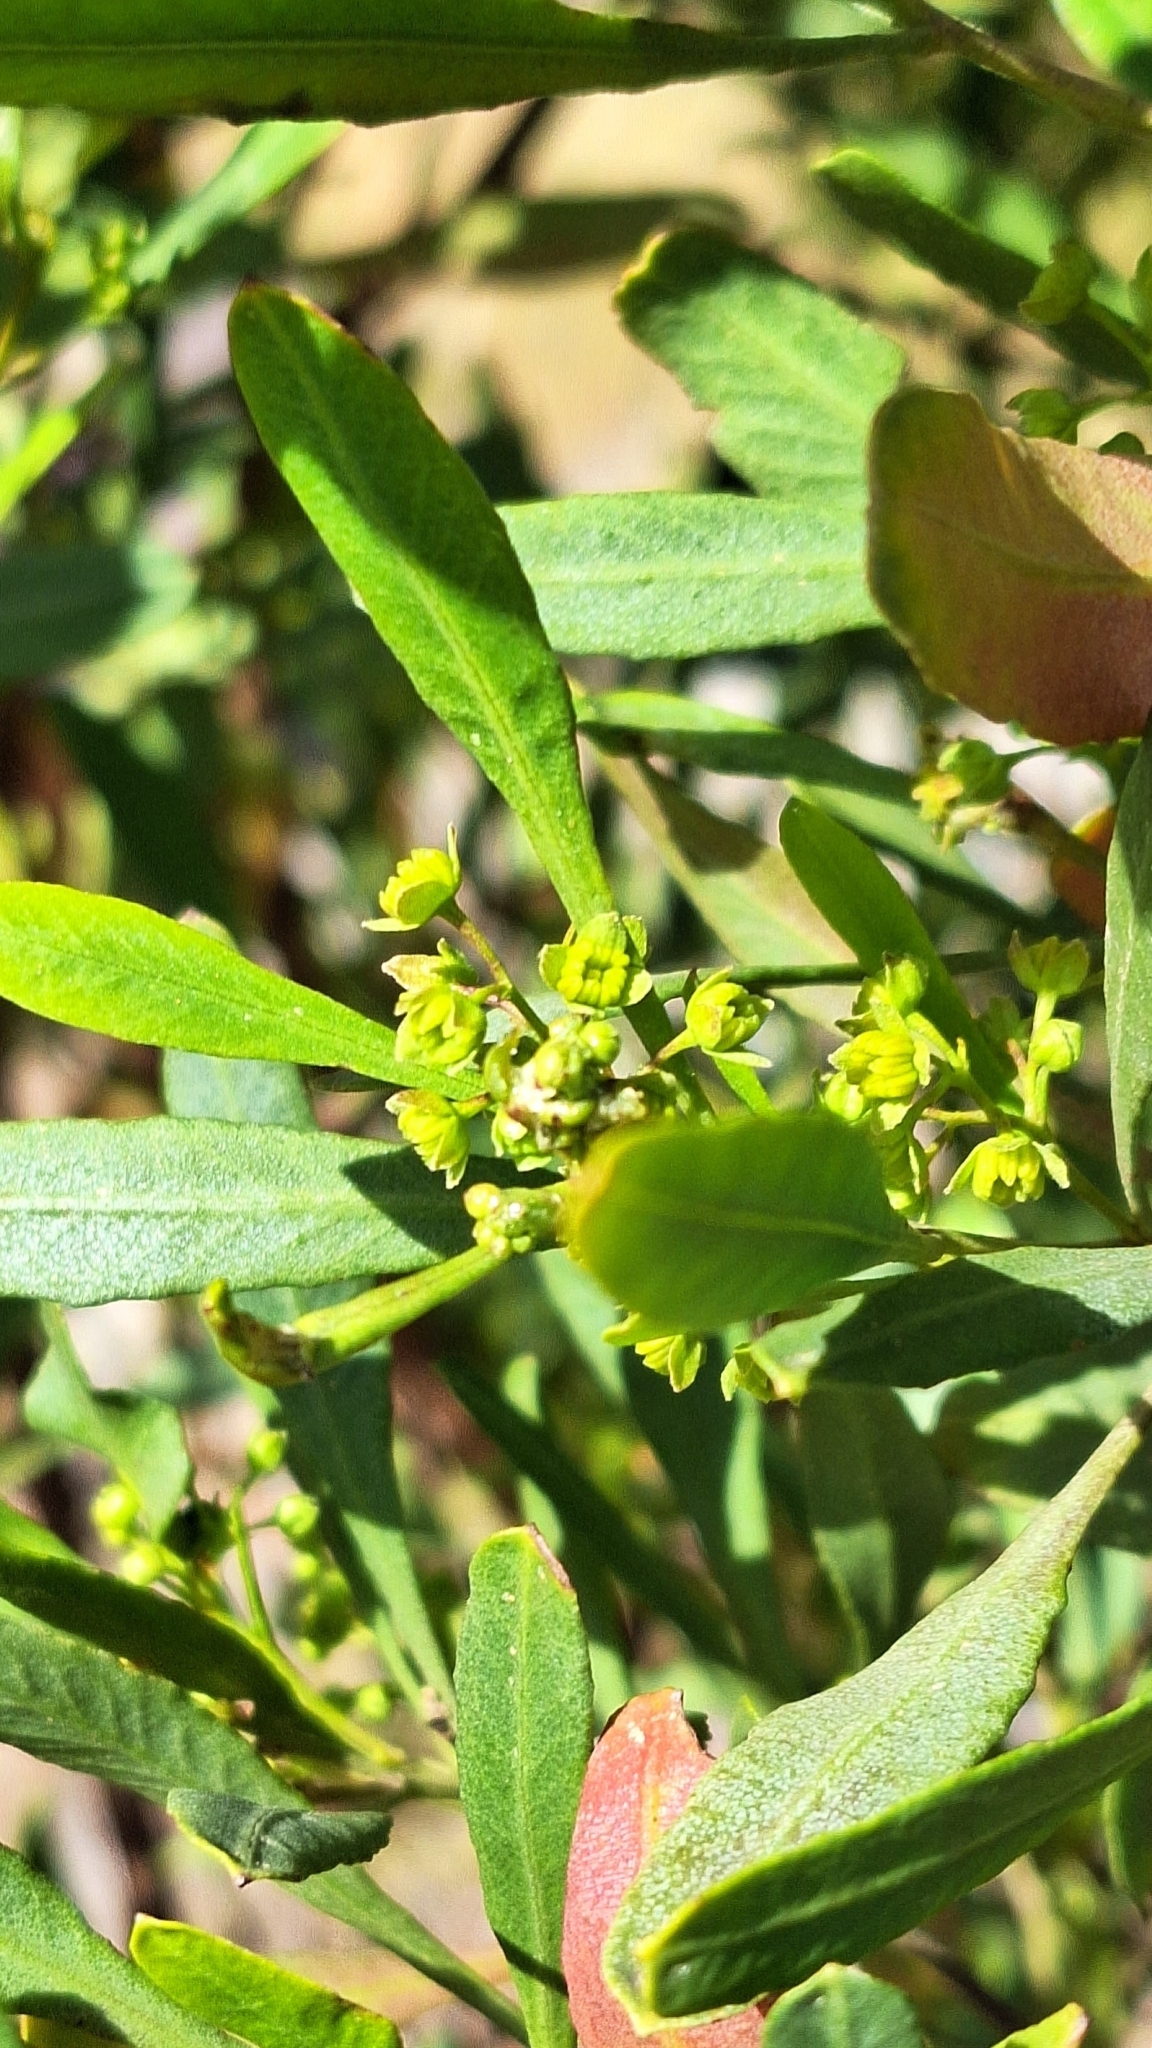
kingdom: Plantae
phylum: Tracheophyta
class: Magnoliopsida
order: Sapindales
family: Sapindaceae
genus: Dodonaea
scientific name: Dodonaea viscosa
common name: Hopbush
